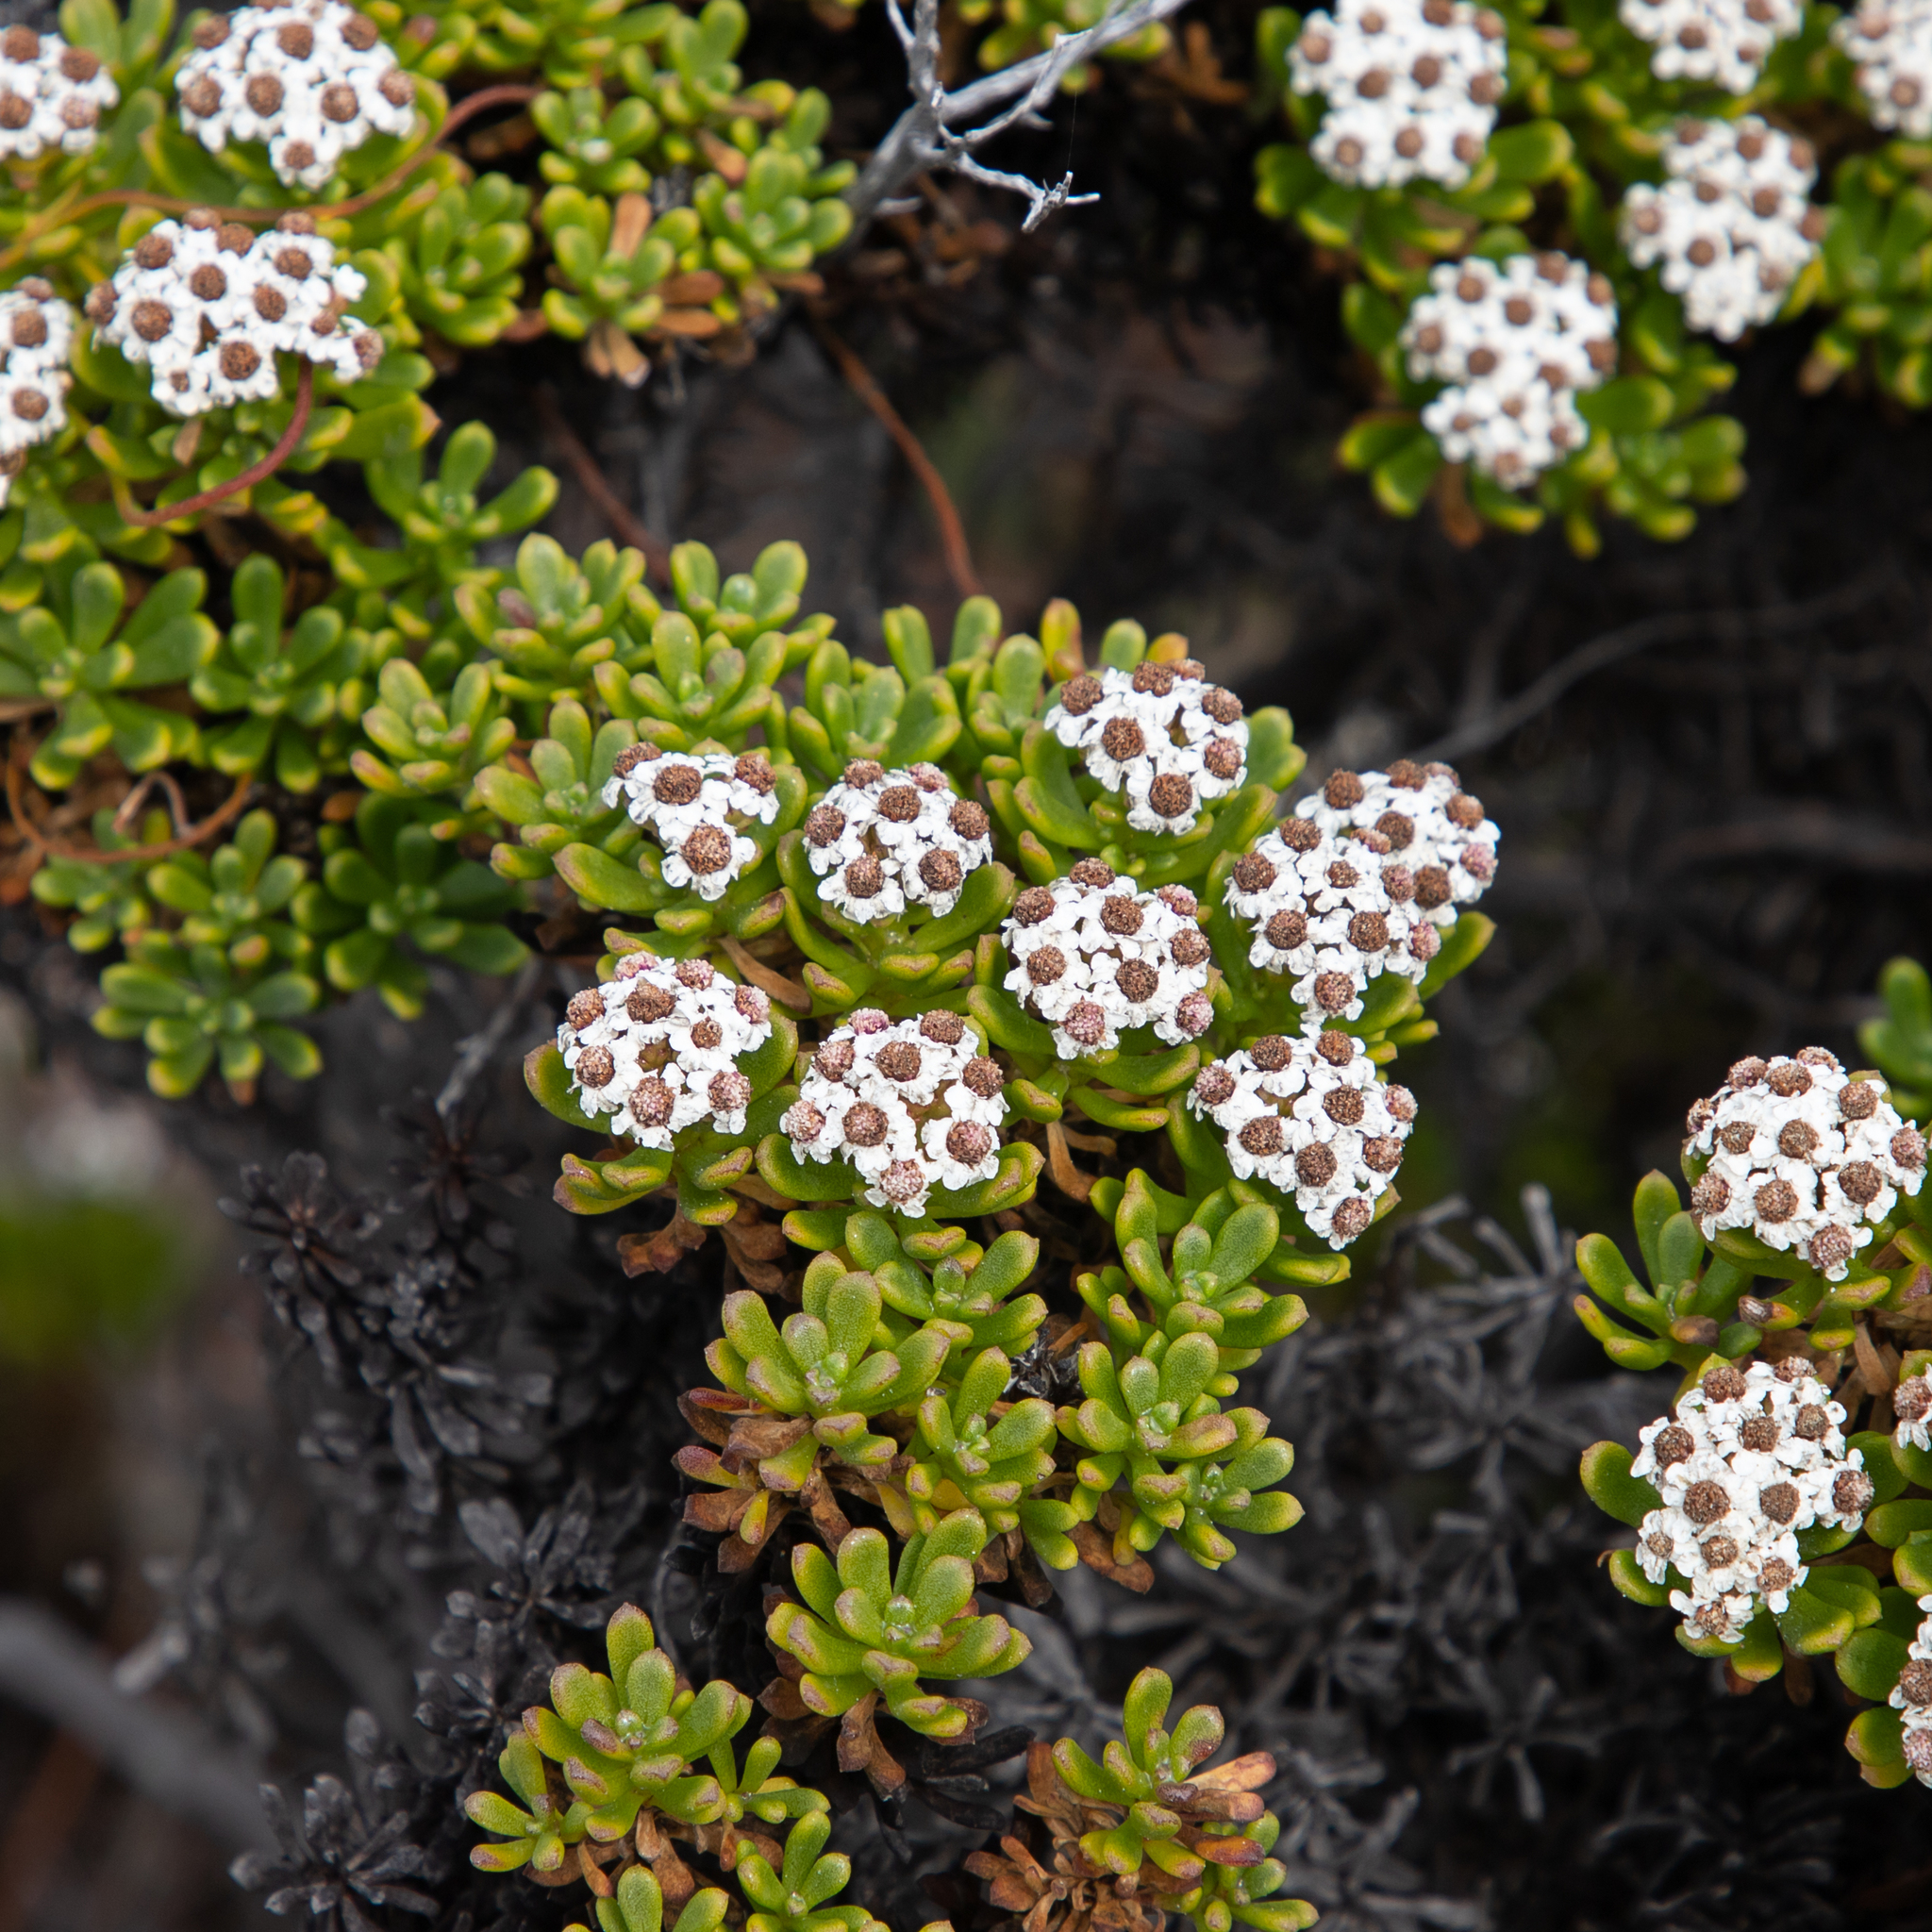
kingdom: Plantae
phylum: Tracheophyta
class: Magnoliopsida
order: Asterales
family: Asteraceae
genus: Ixodia
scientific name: Ixodia achillaeoides
